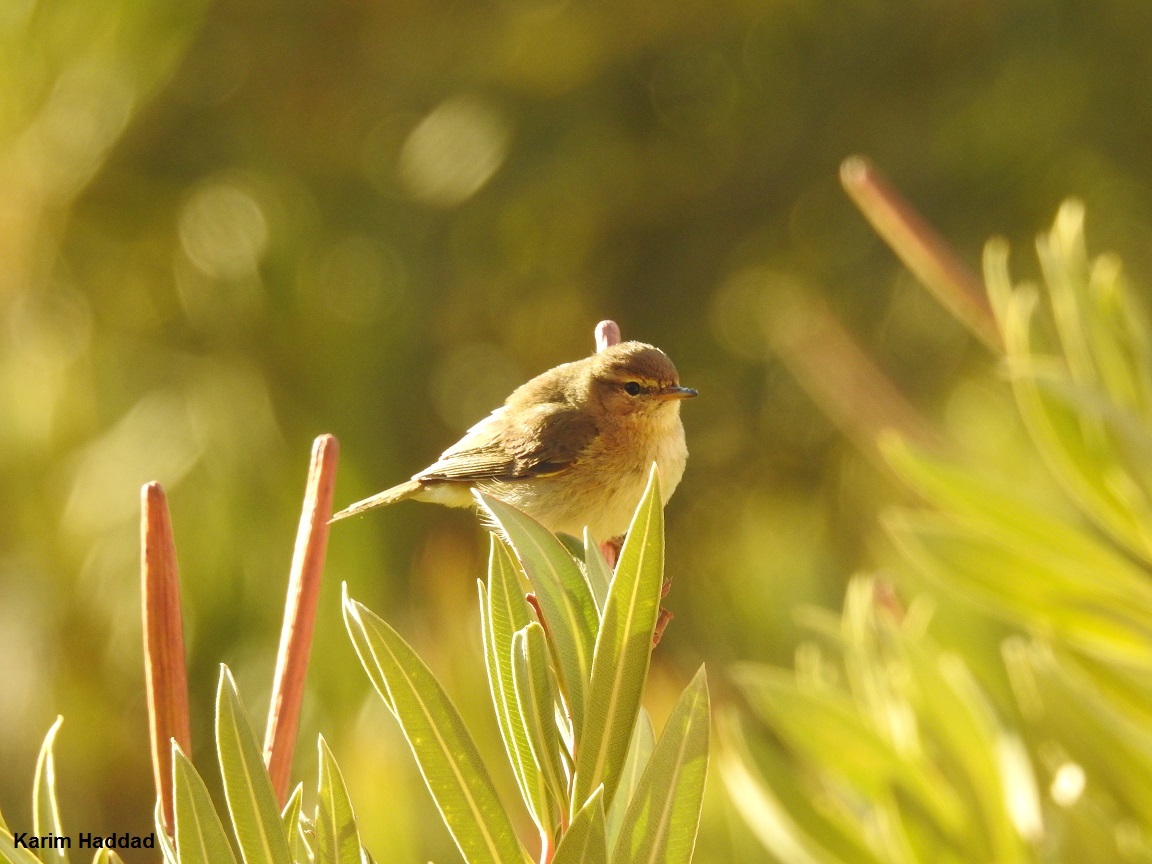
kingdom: Animalia
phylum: Chordata
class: Aves
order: Passeriformes
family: Phylloscopidae
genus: Phylloscopus
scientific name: Phylloscopus trochilus
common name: Willow warbler
